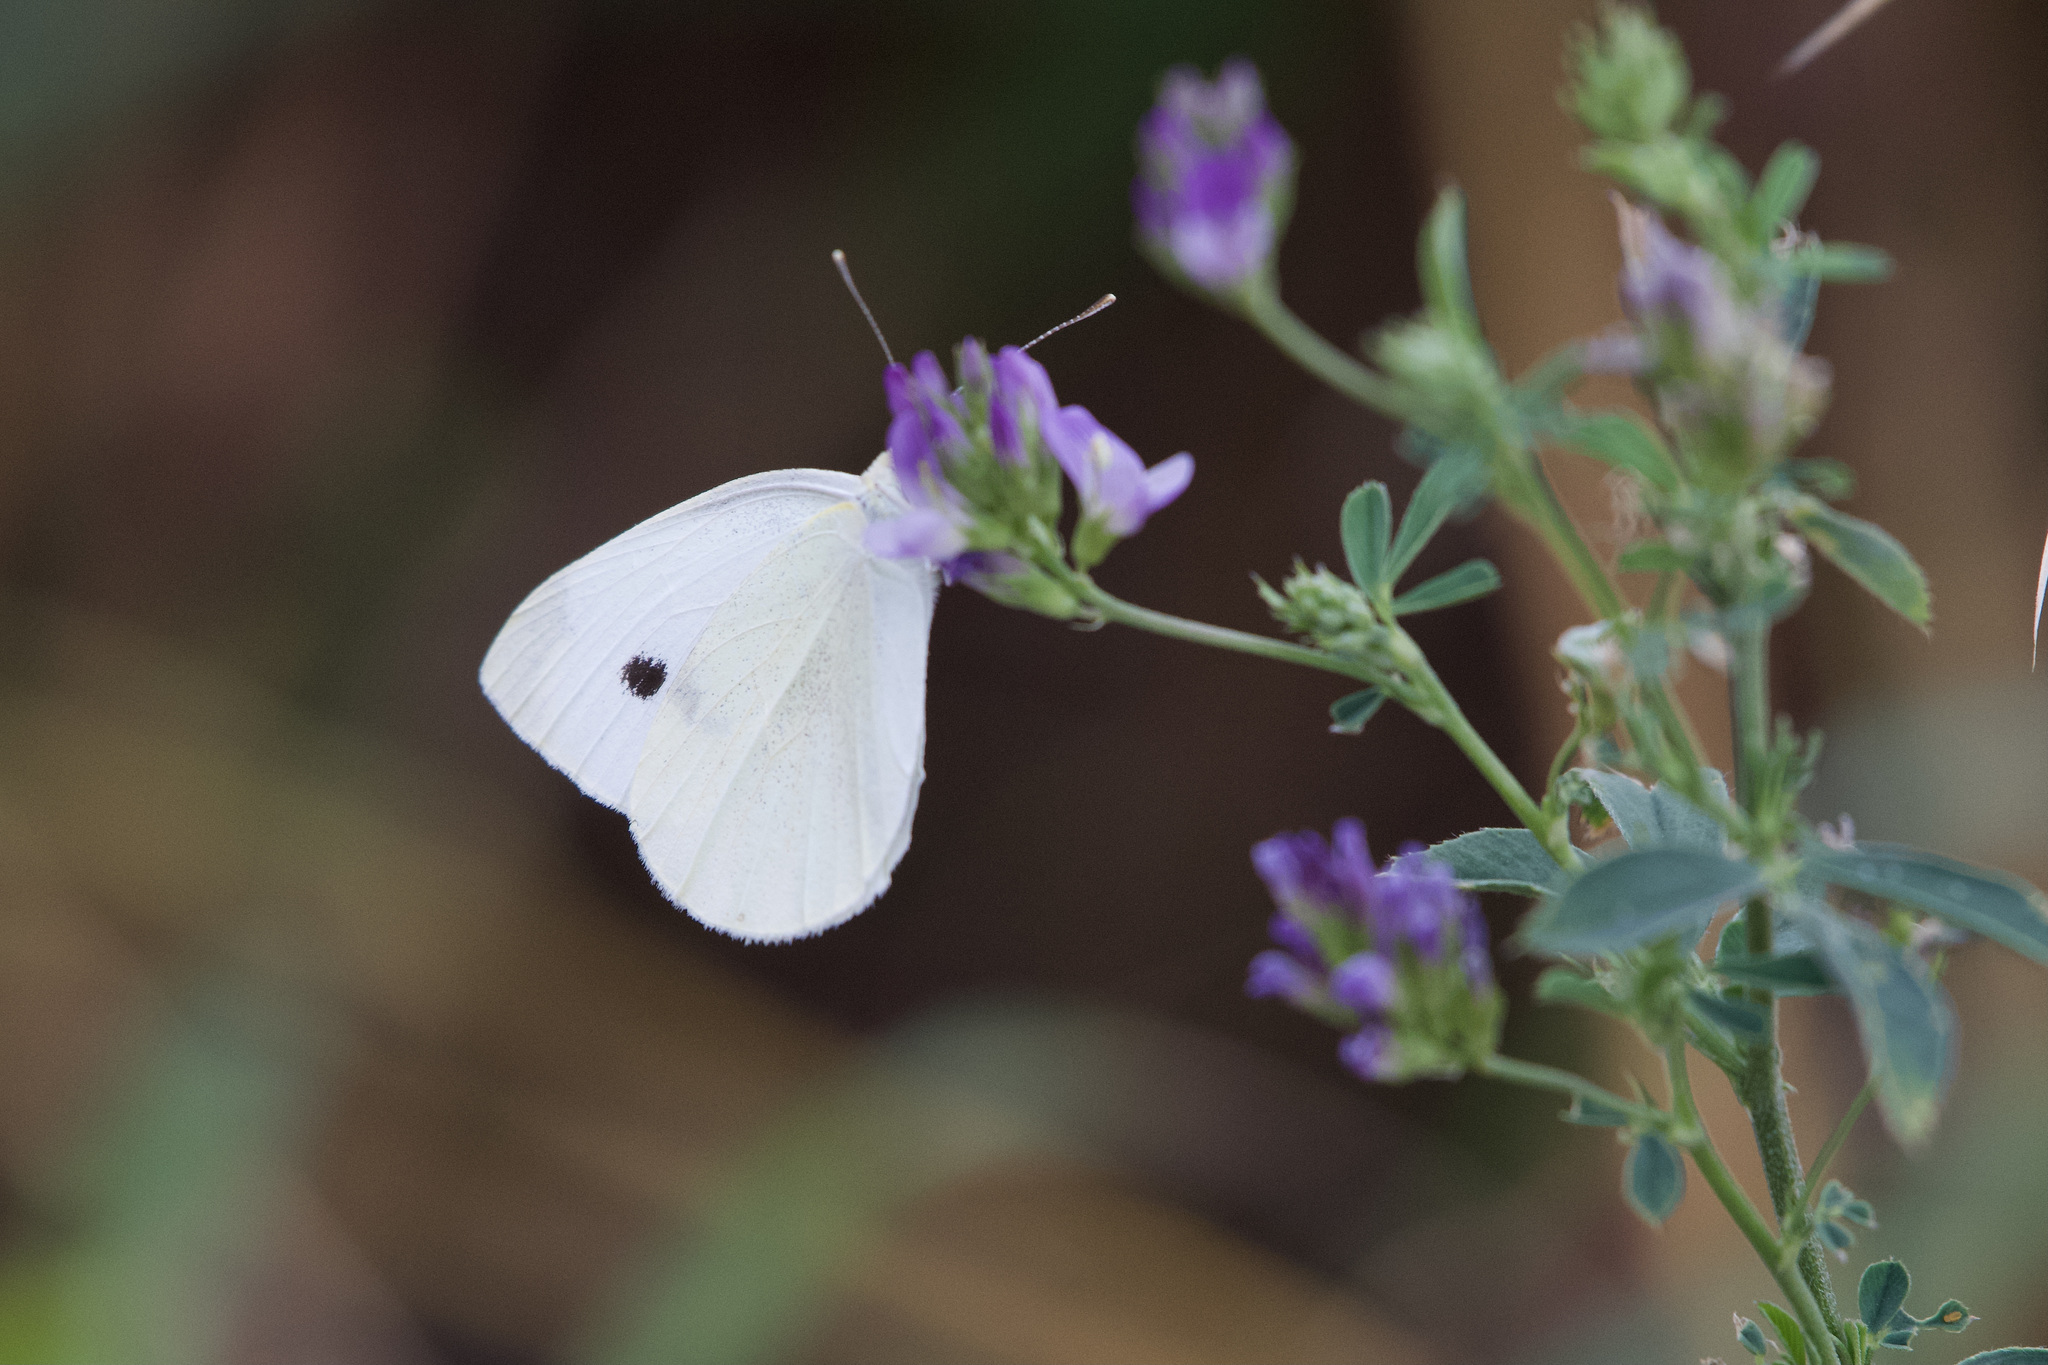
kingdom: Animalia
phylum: Arthropoda
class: Insecta
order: Lepidoptera
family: Pieridae
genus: Pieris
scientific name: Pieris rapae
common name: Small white
